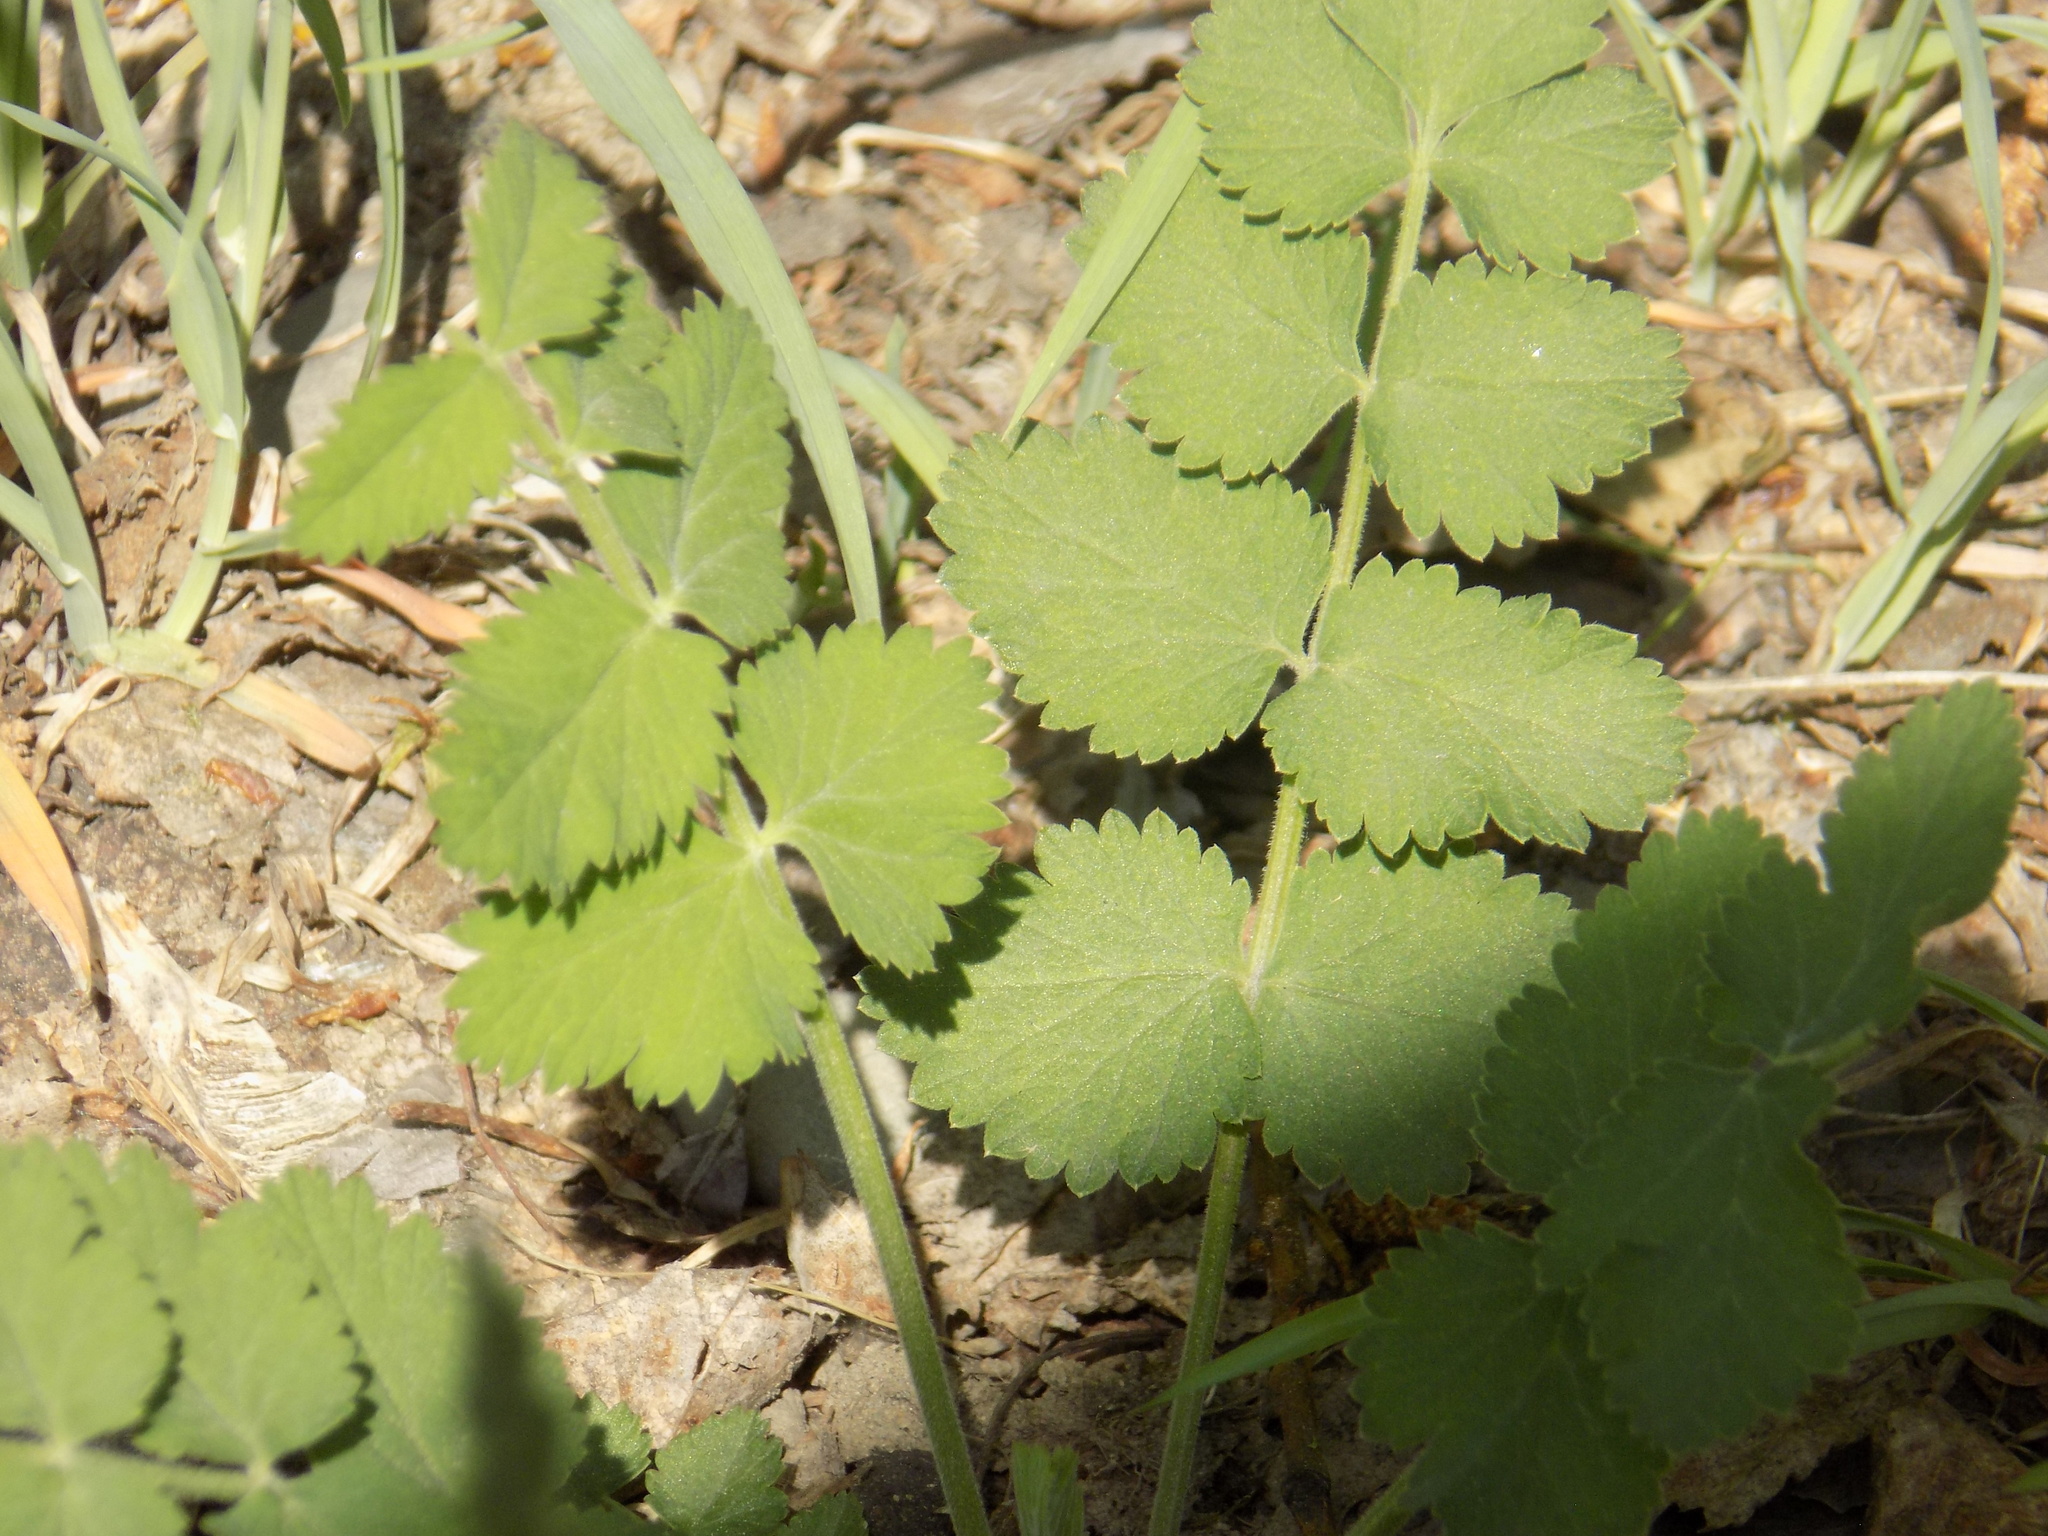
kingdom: Plantae
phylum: Tracheophyta
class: Magnoliopsida
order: Apiales
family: Apiaceae
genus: Pimpinella
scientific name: Pimpinella saxifraga
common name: Burnet-saxifrage
